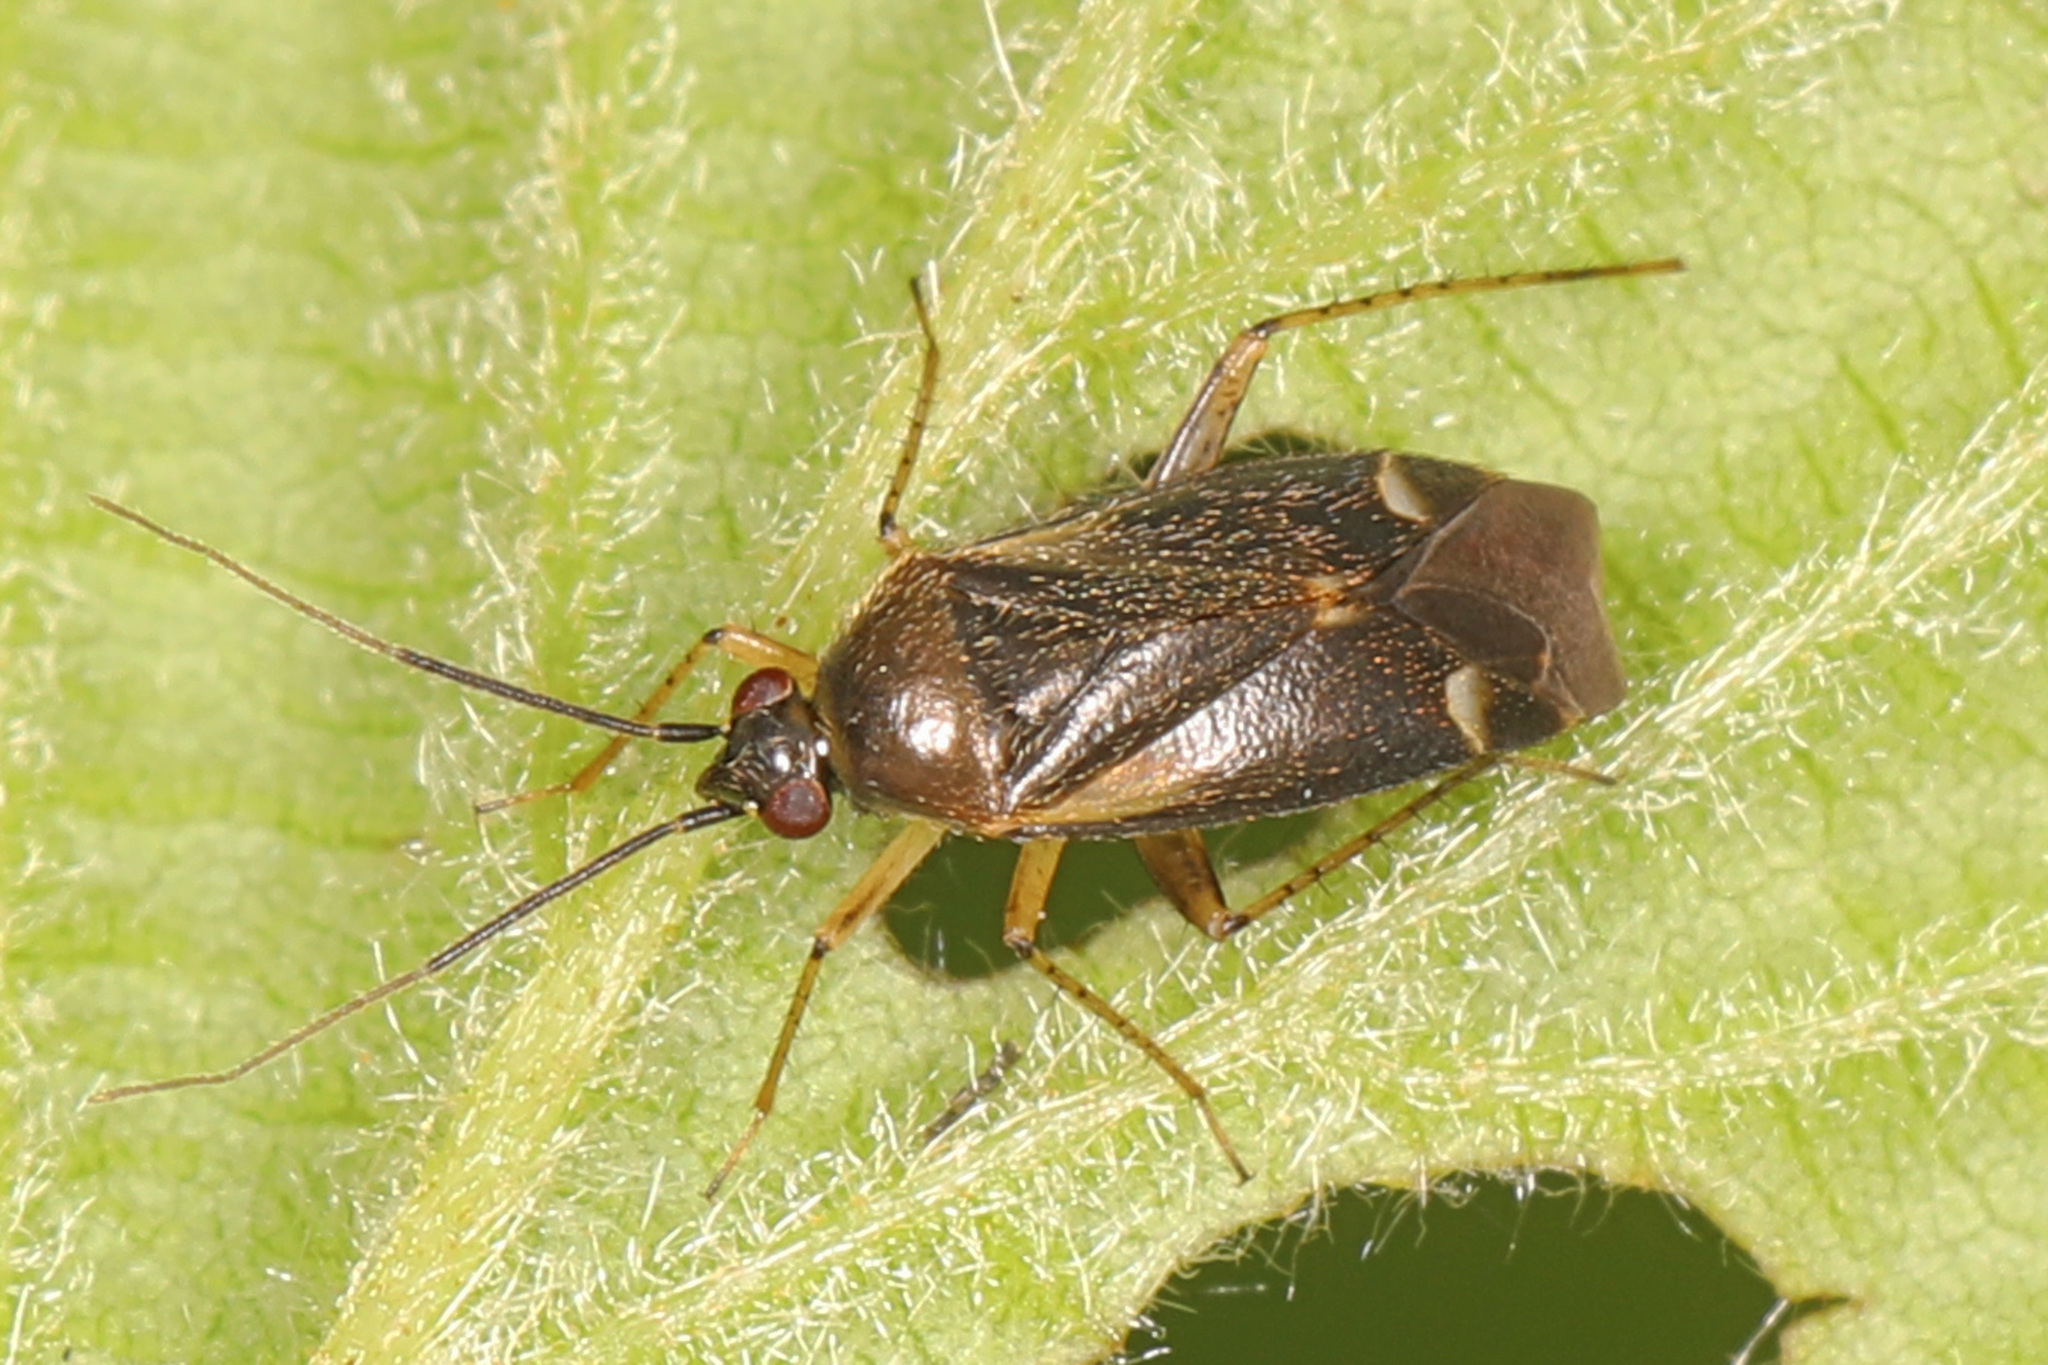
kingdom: Animalia
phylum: Arthropoda
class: Insecta
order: Hemiptera
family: Miridae
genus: Plagiognathus
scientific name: Plagiognathus obscurus
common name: Obscure plant bug
